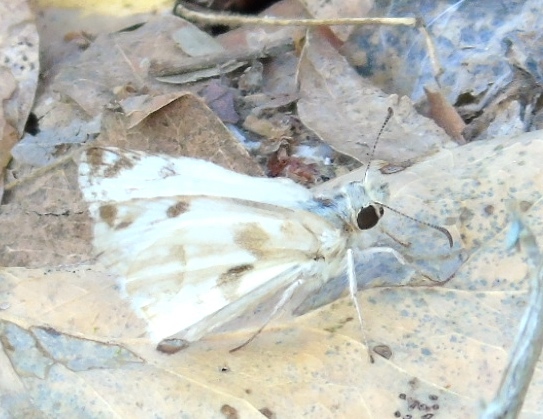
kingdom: Animalia
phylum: Arthropoda
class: Insecta
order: Lepidoptera
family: Hesperiidae
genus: Heliopetes
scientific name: Heliopetes laviana
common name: Laviana white-skipper
